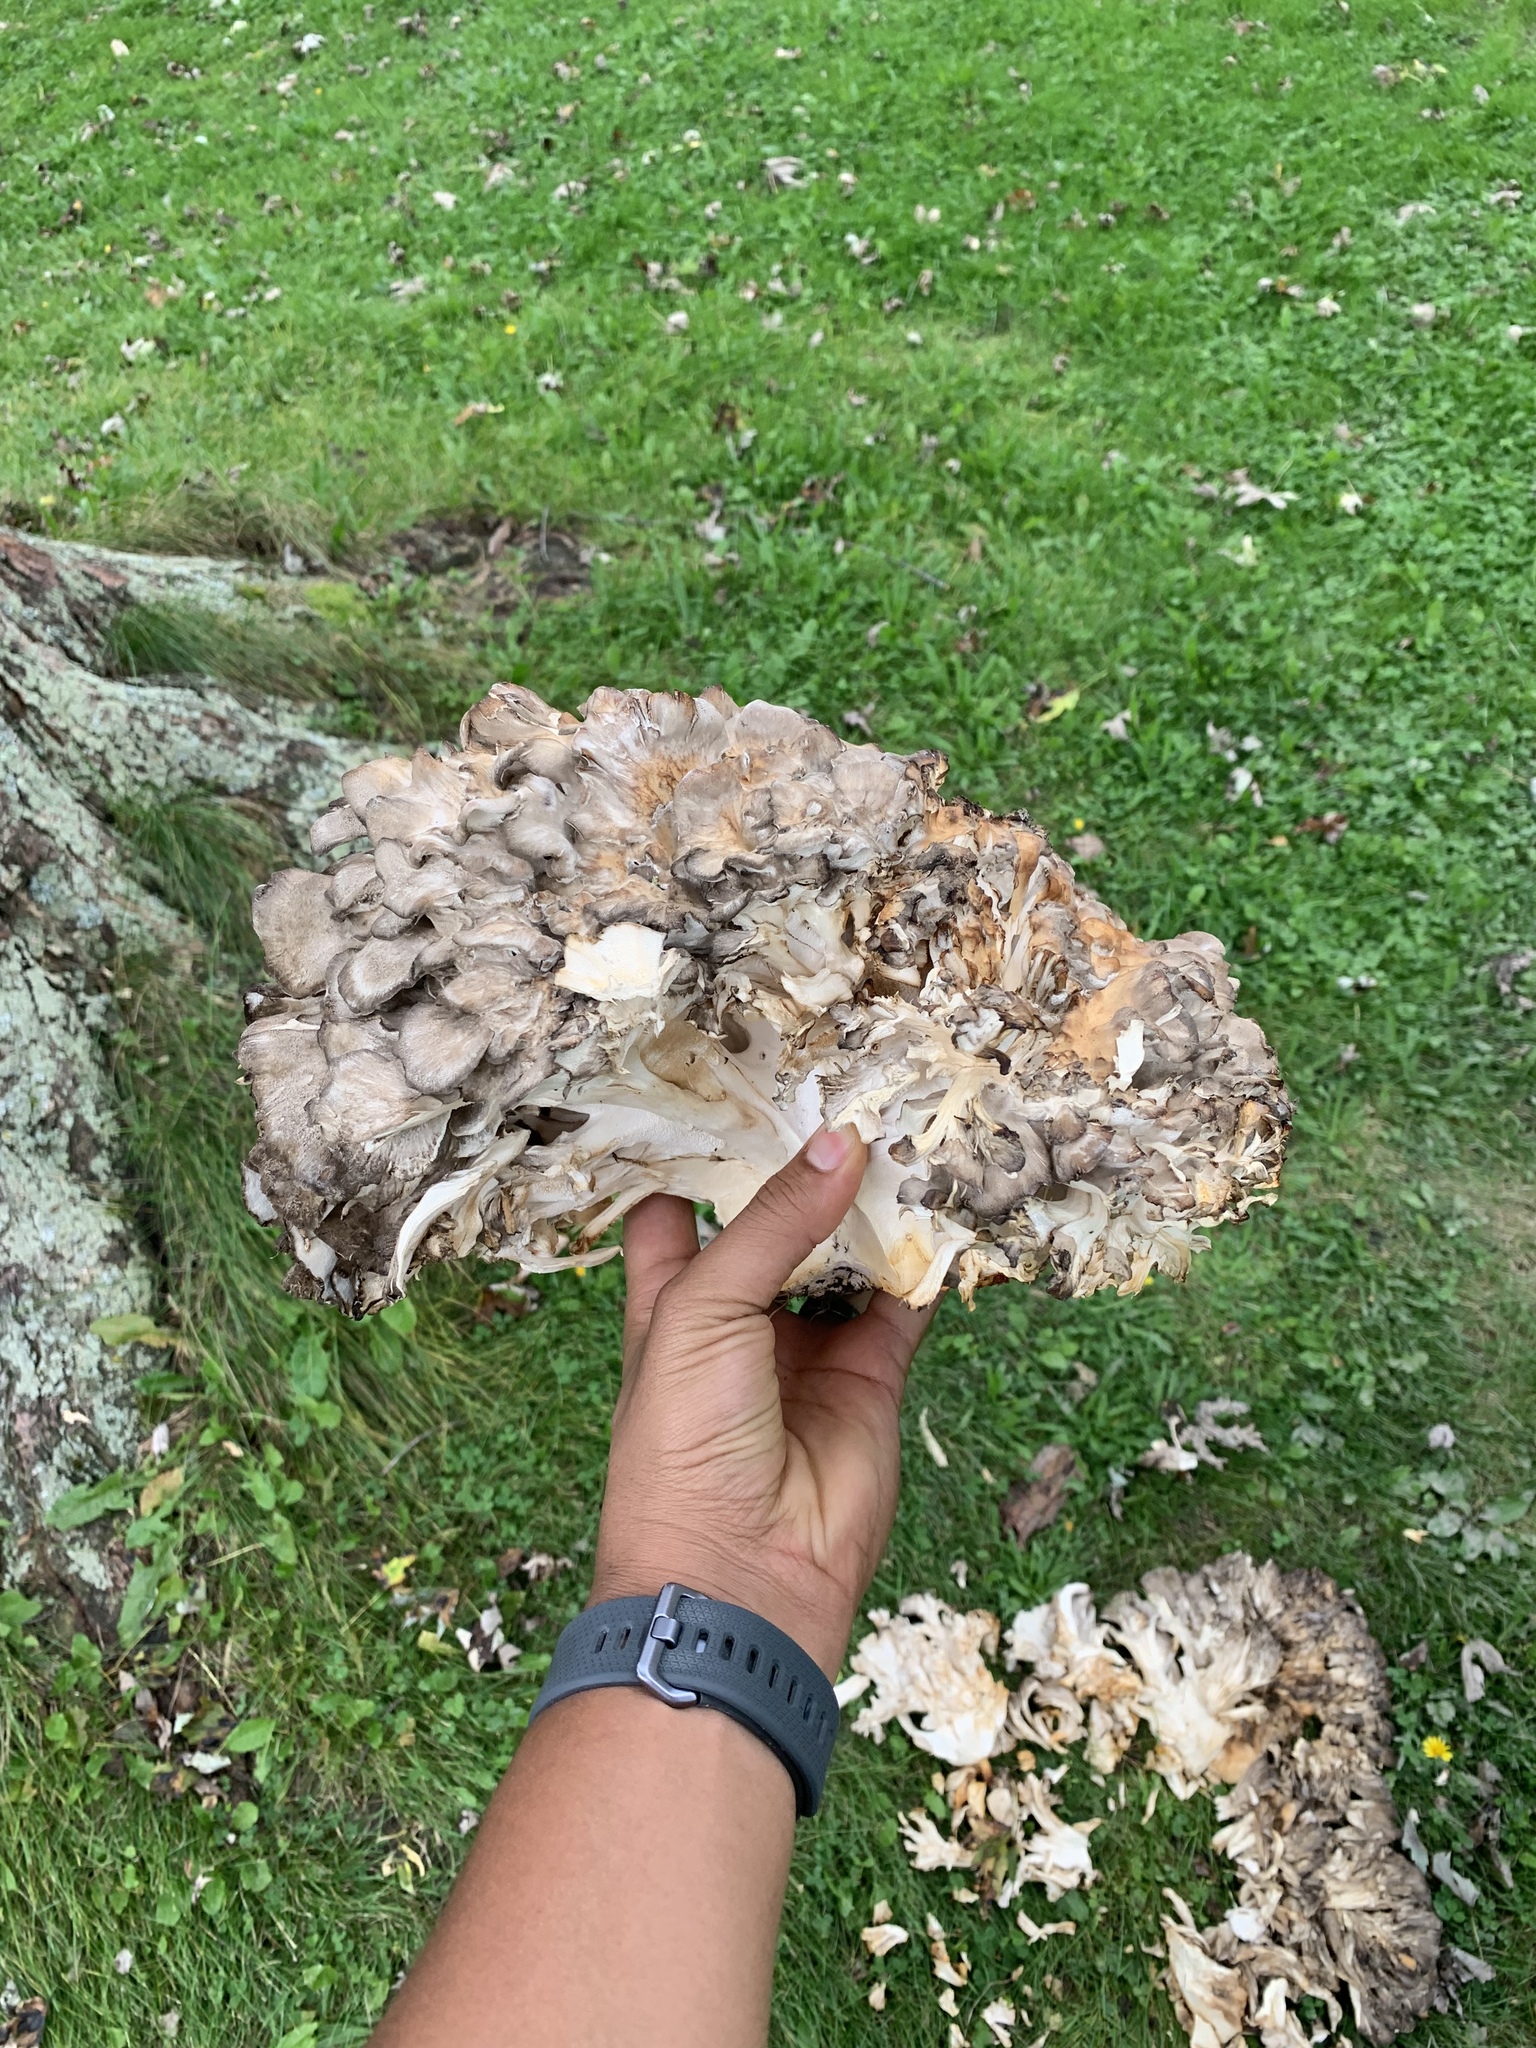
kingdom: Fungi
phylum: Basidiomycota
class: Agaricomycetes
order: Polyporales
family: Grifolaceae
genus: Grifola
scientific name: Grifola frondosa
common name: Hen of the woods
